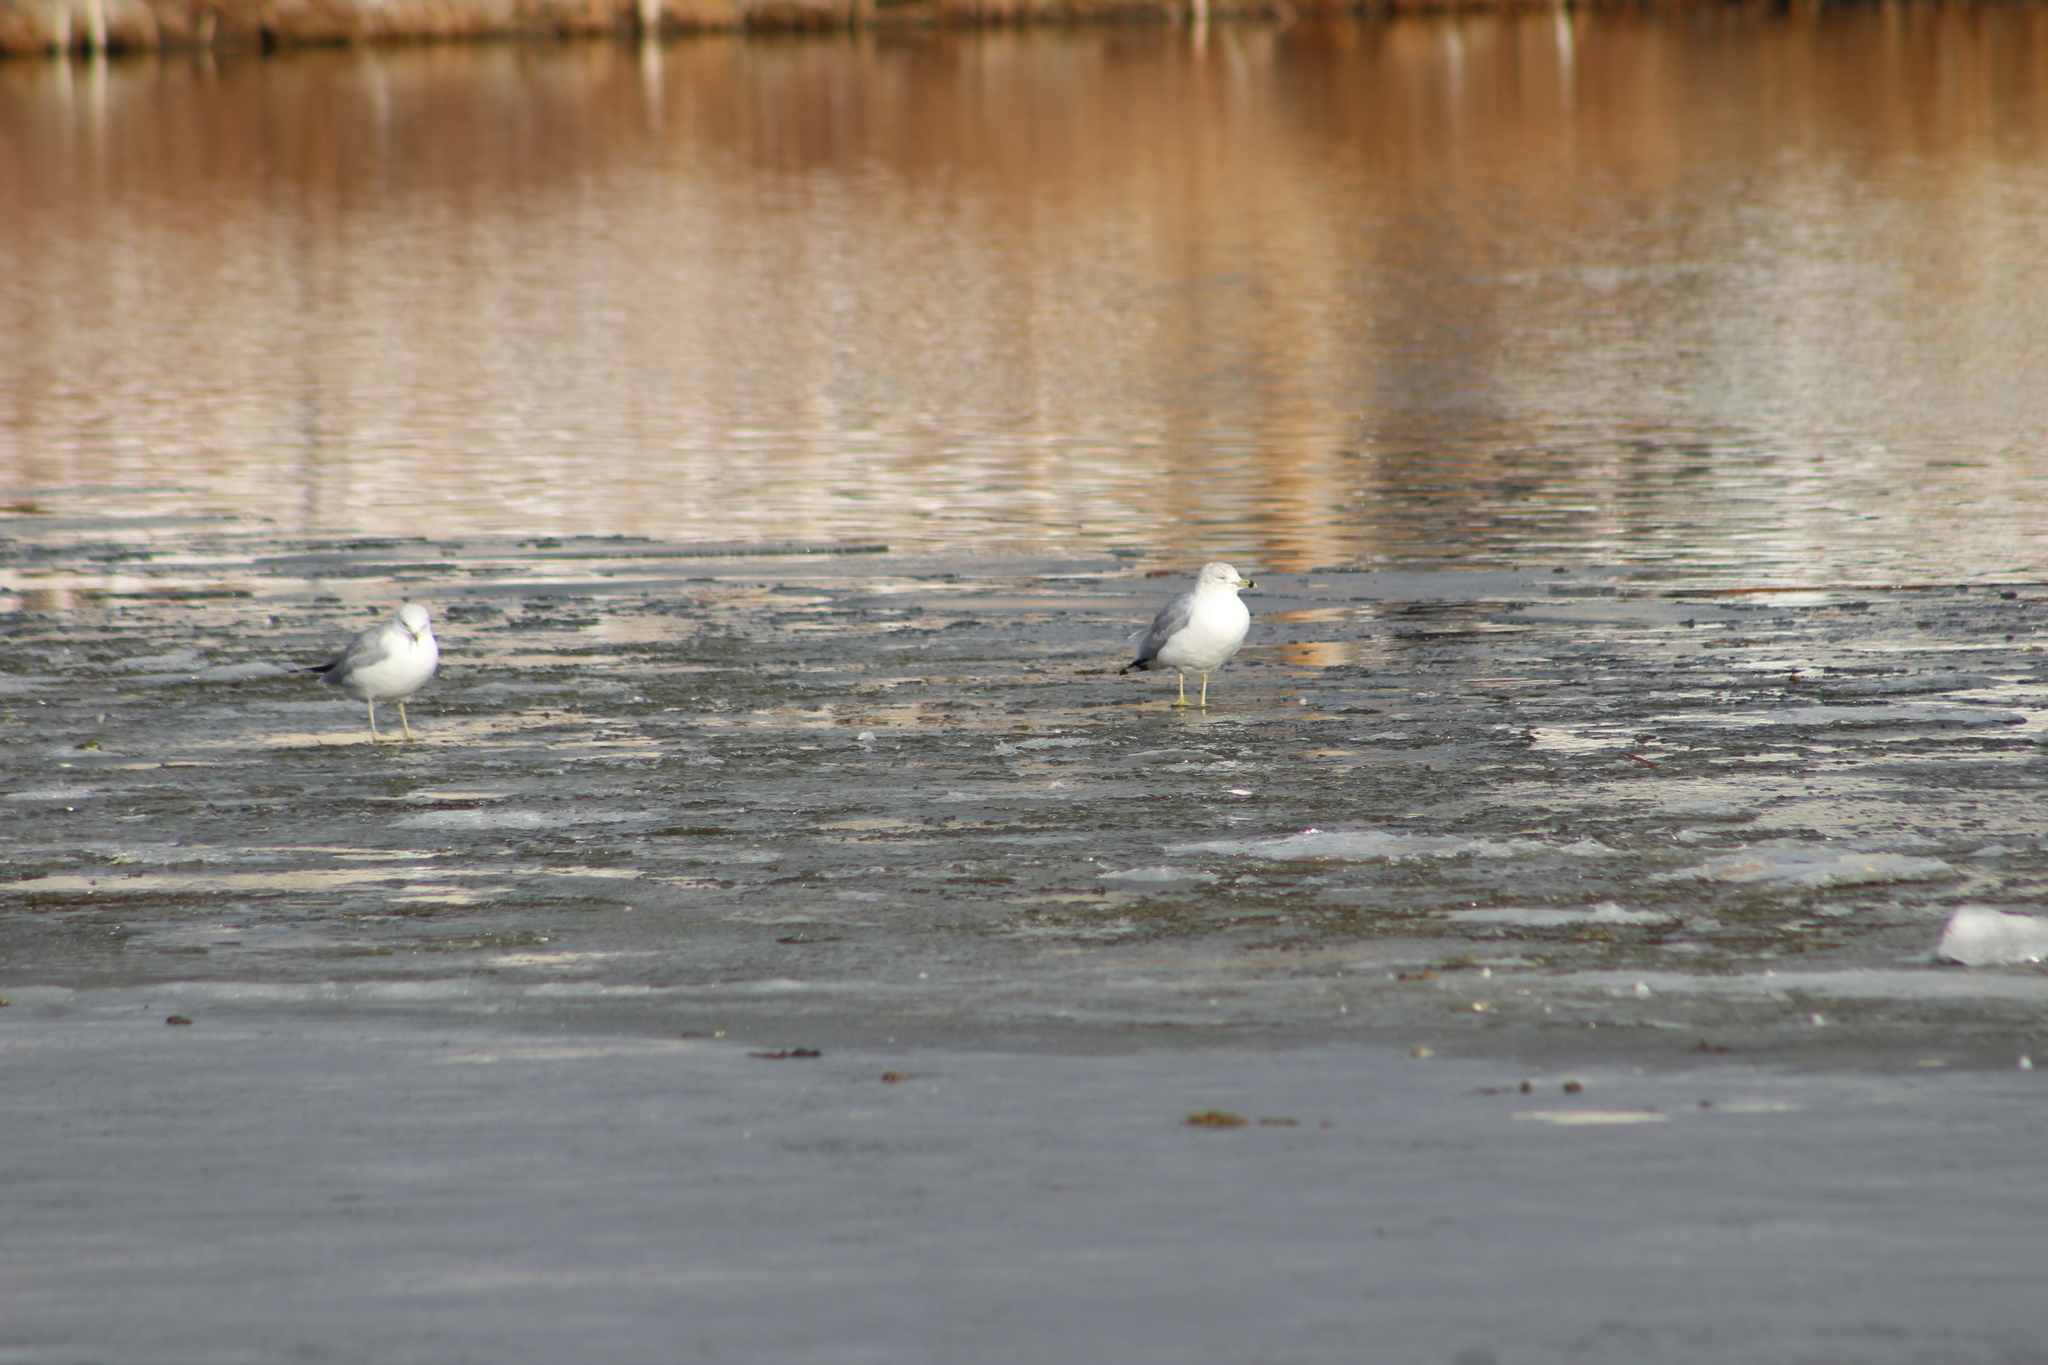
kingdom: Animalia
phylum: Chordata
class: Aves
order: Charadriiformes
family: Laridae
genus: Larus
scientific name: Larus delawarensis
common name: Ring-billed gull
